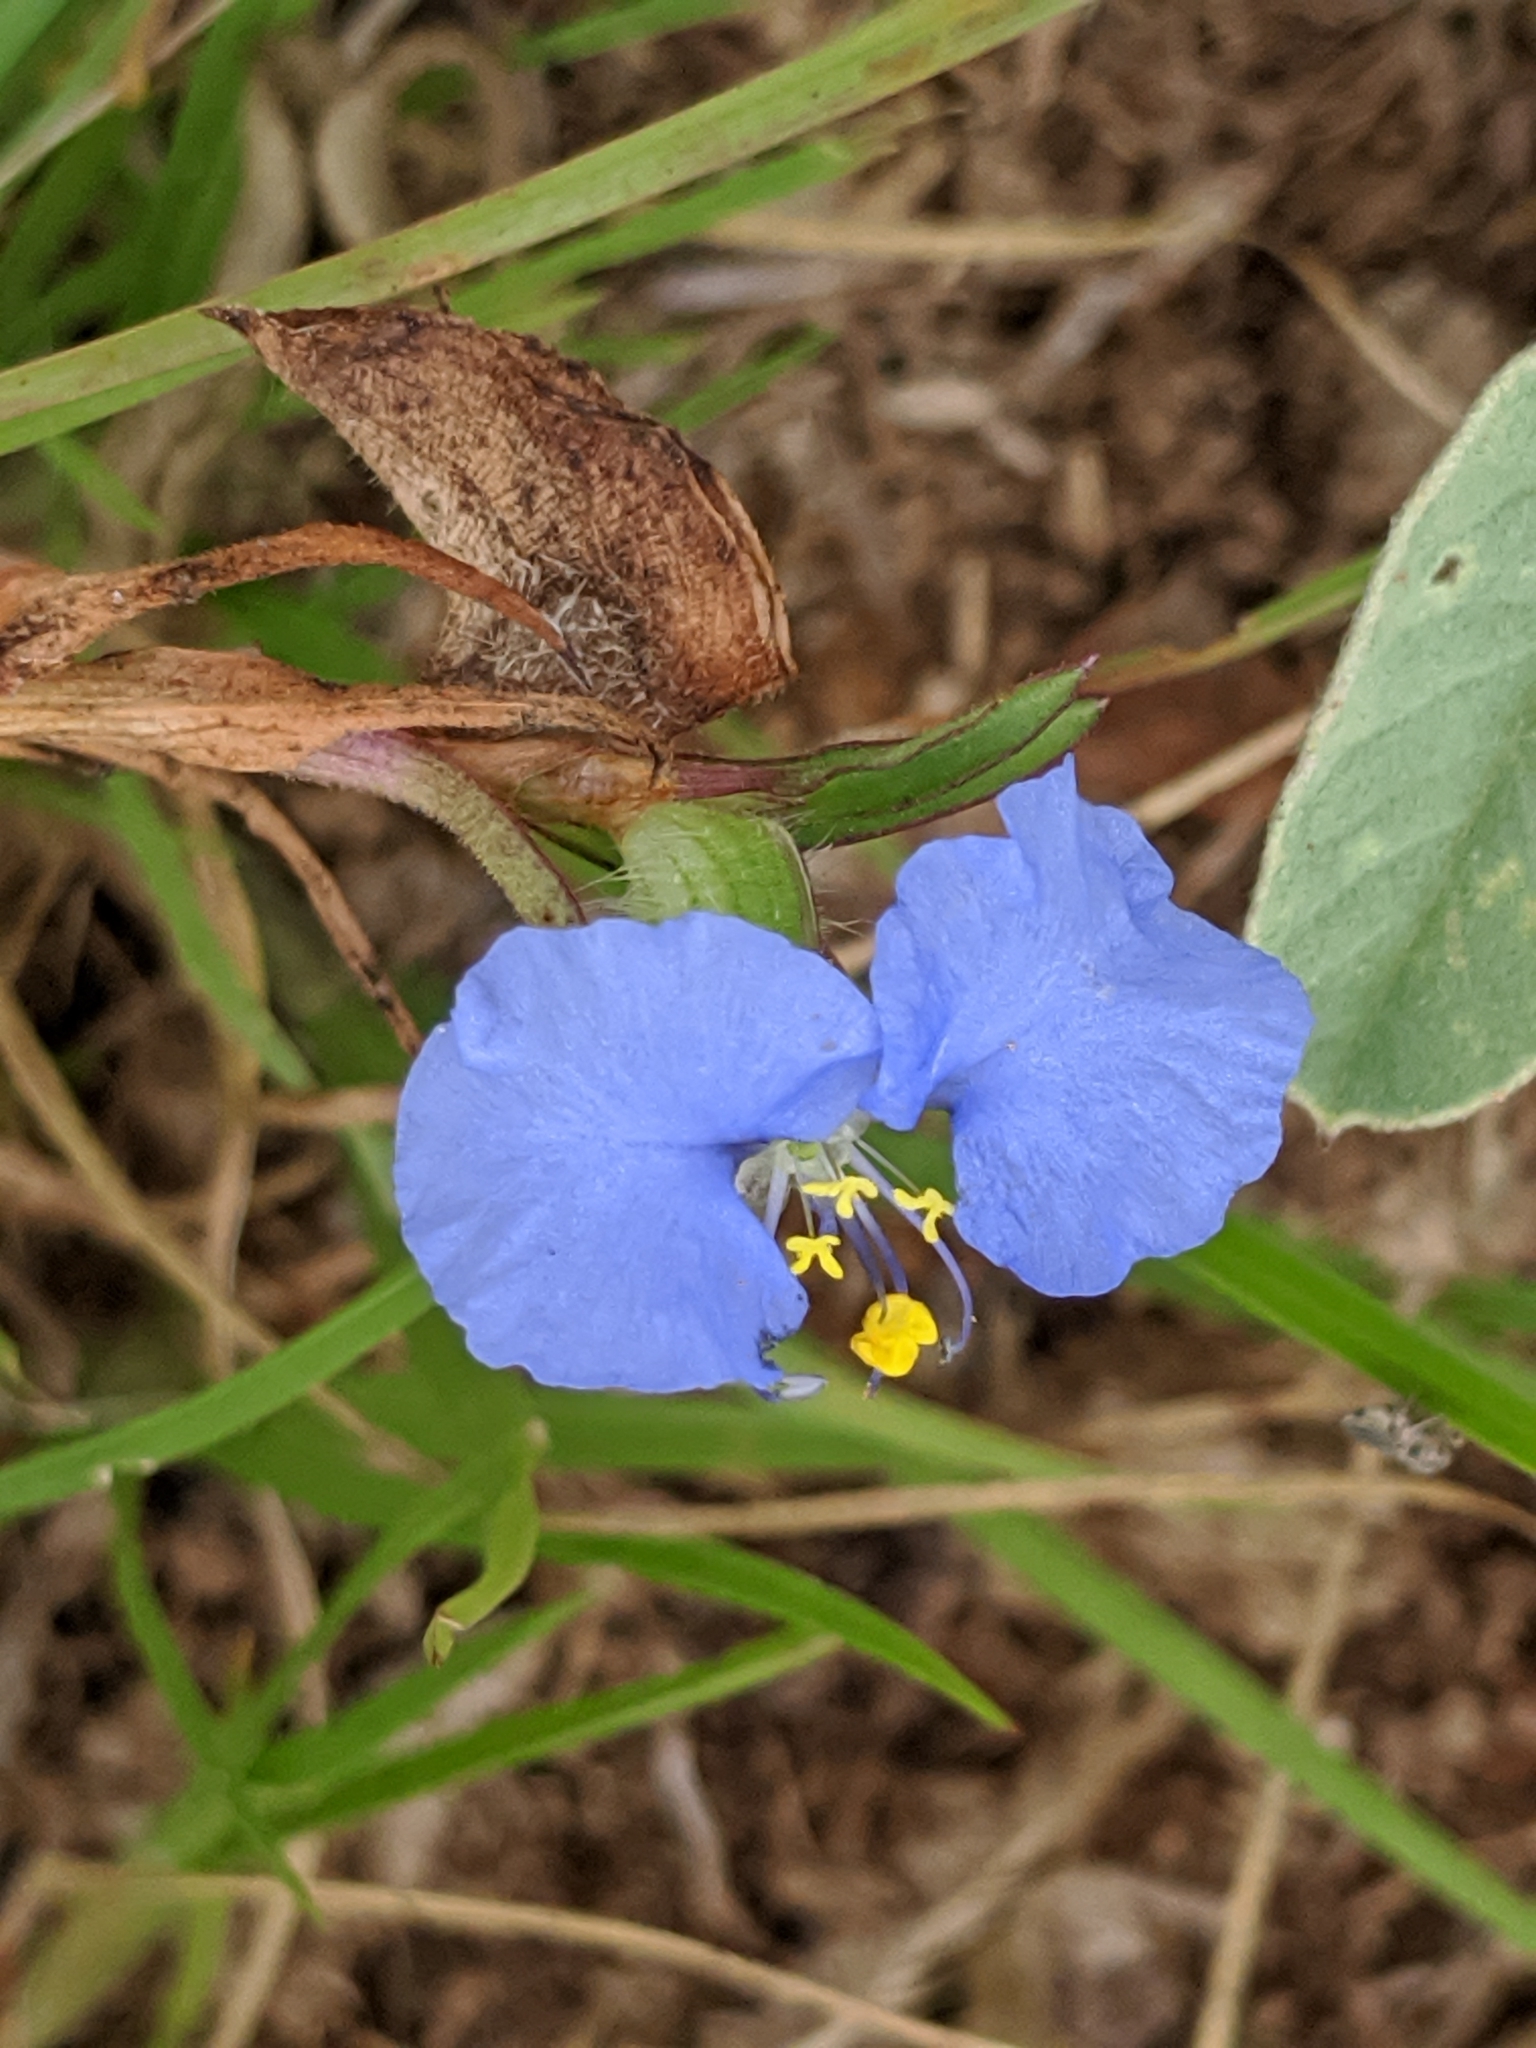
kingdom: Plantae
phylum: Tracheophyta
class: Liliopsida
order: Commelinales
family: Commelinaceae
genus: Commelina
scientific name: Commelina erecta
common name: Blousel blommetjie
